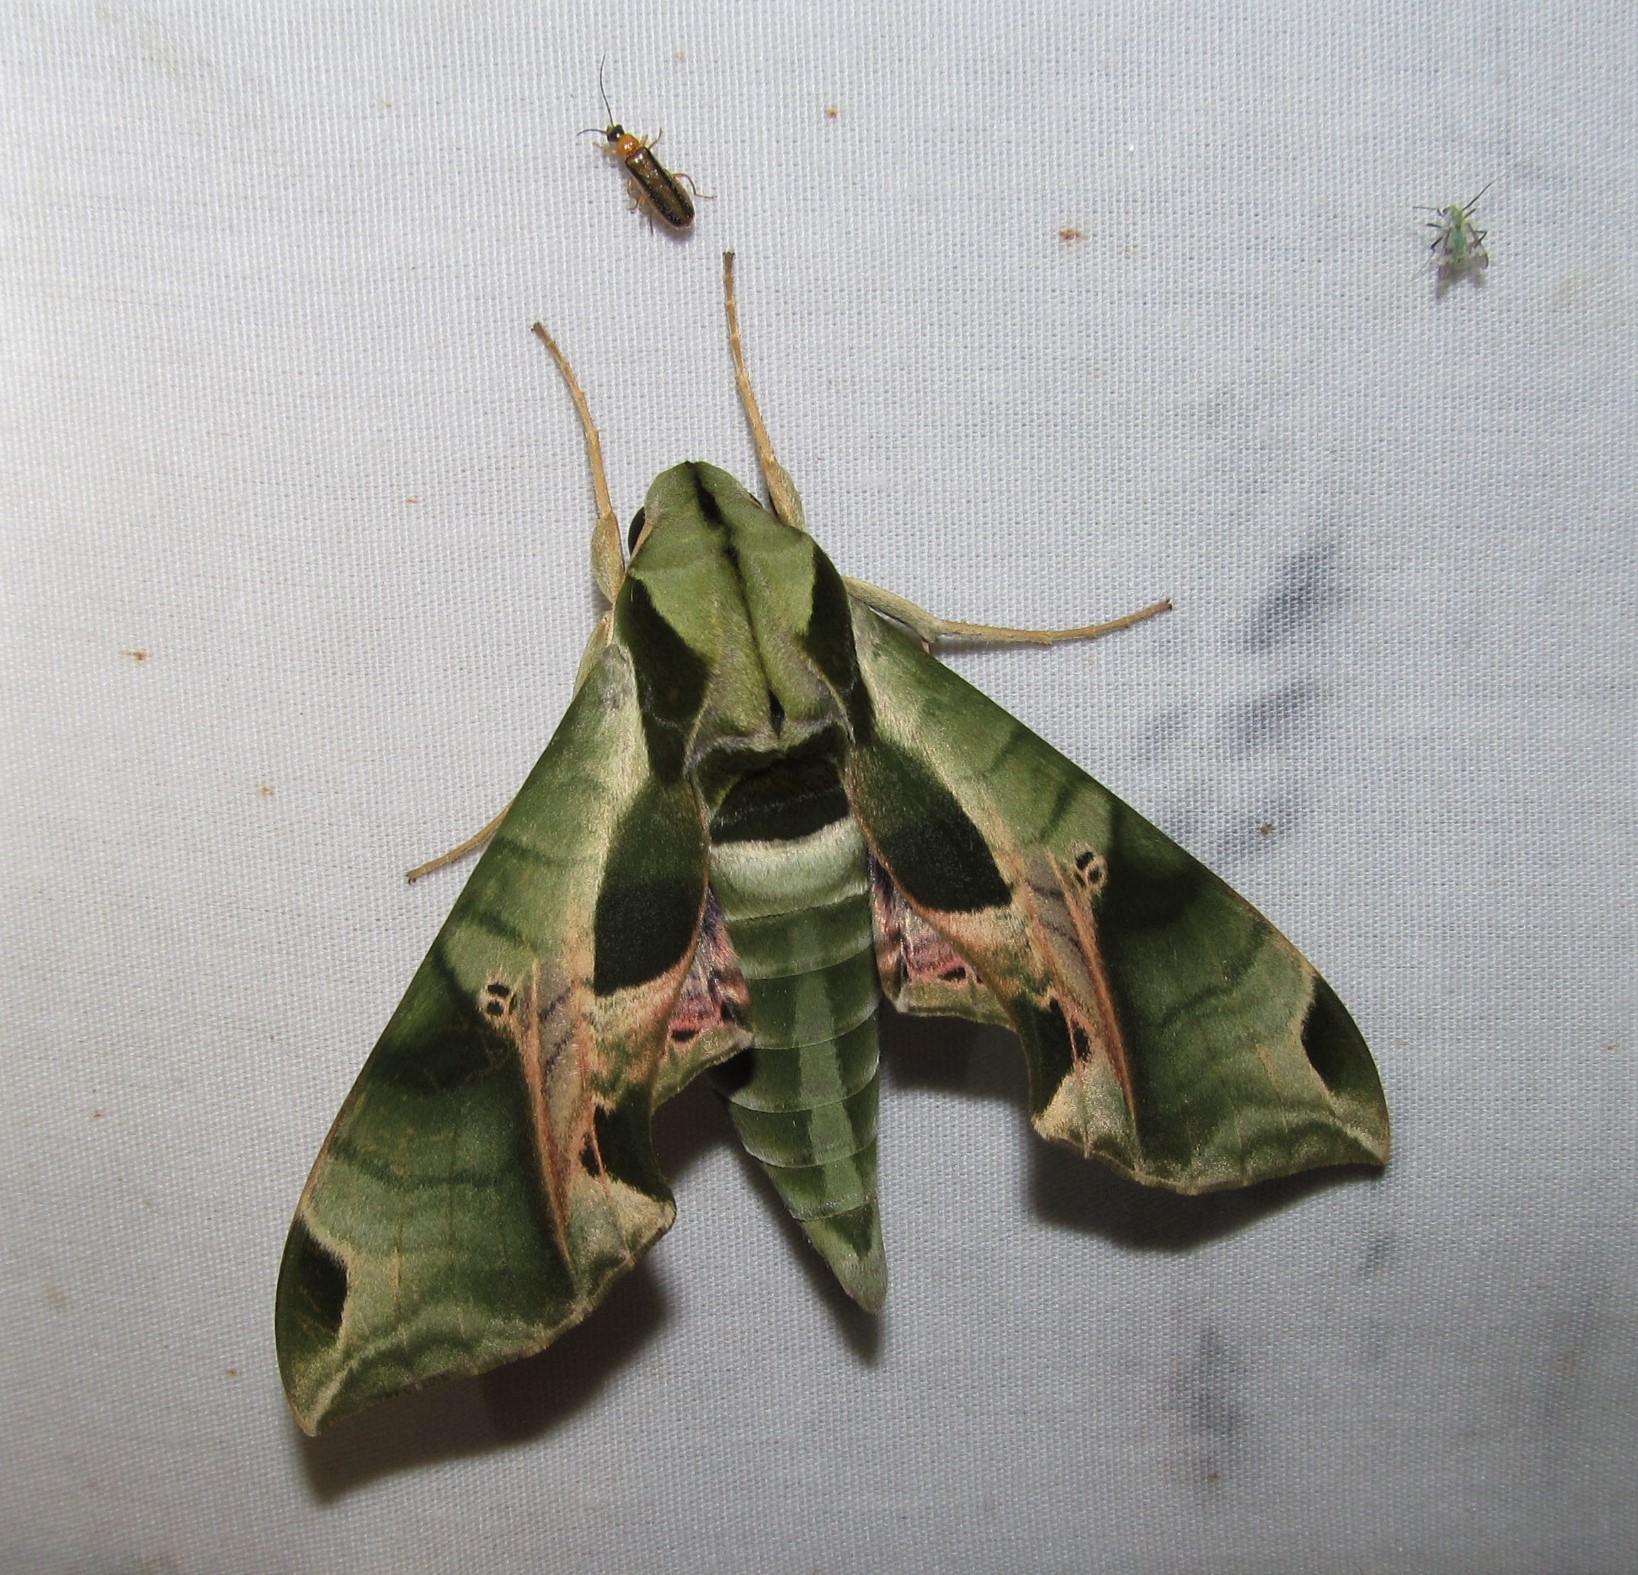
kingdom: Animalia
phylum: Arthropoda
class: Insecta
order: Lepidoptera
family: Sphingidae
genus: Eumorpha
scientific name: Eumorpha pandorus
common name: Pandora sphinx
